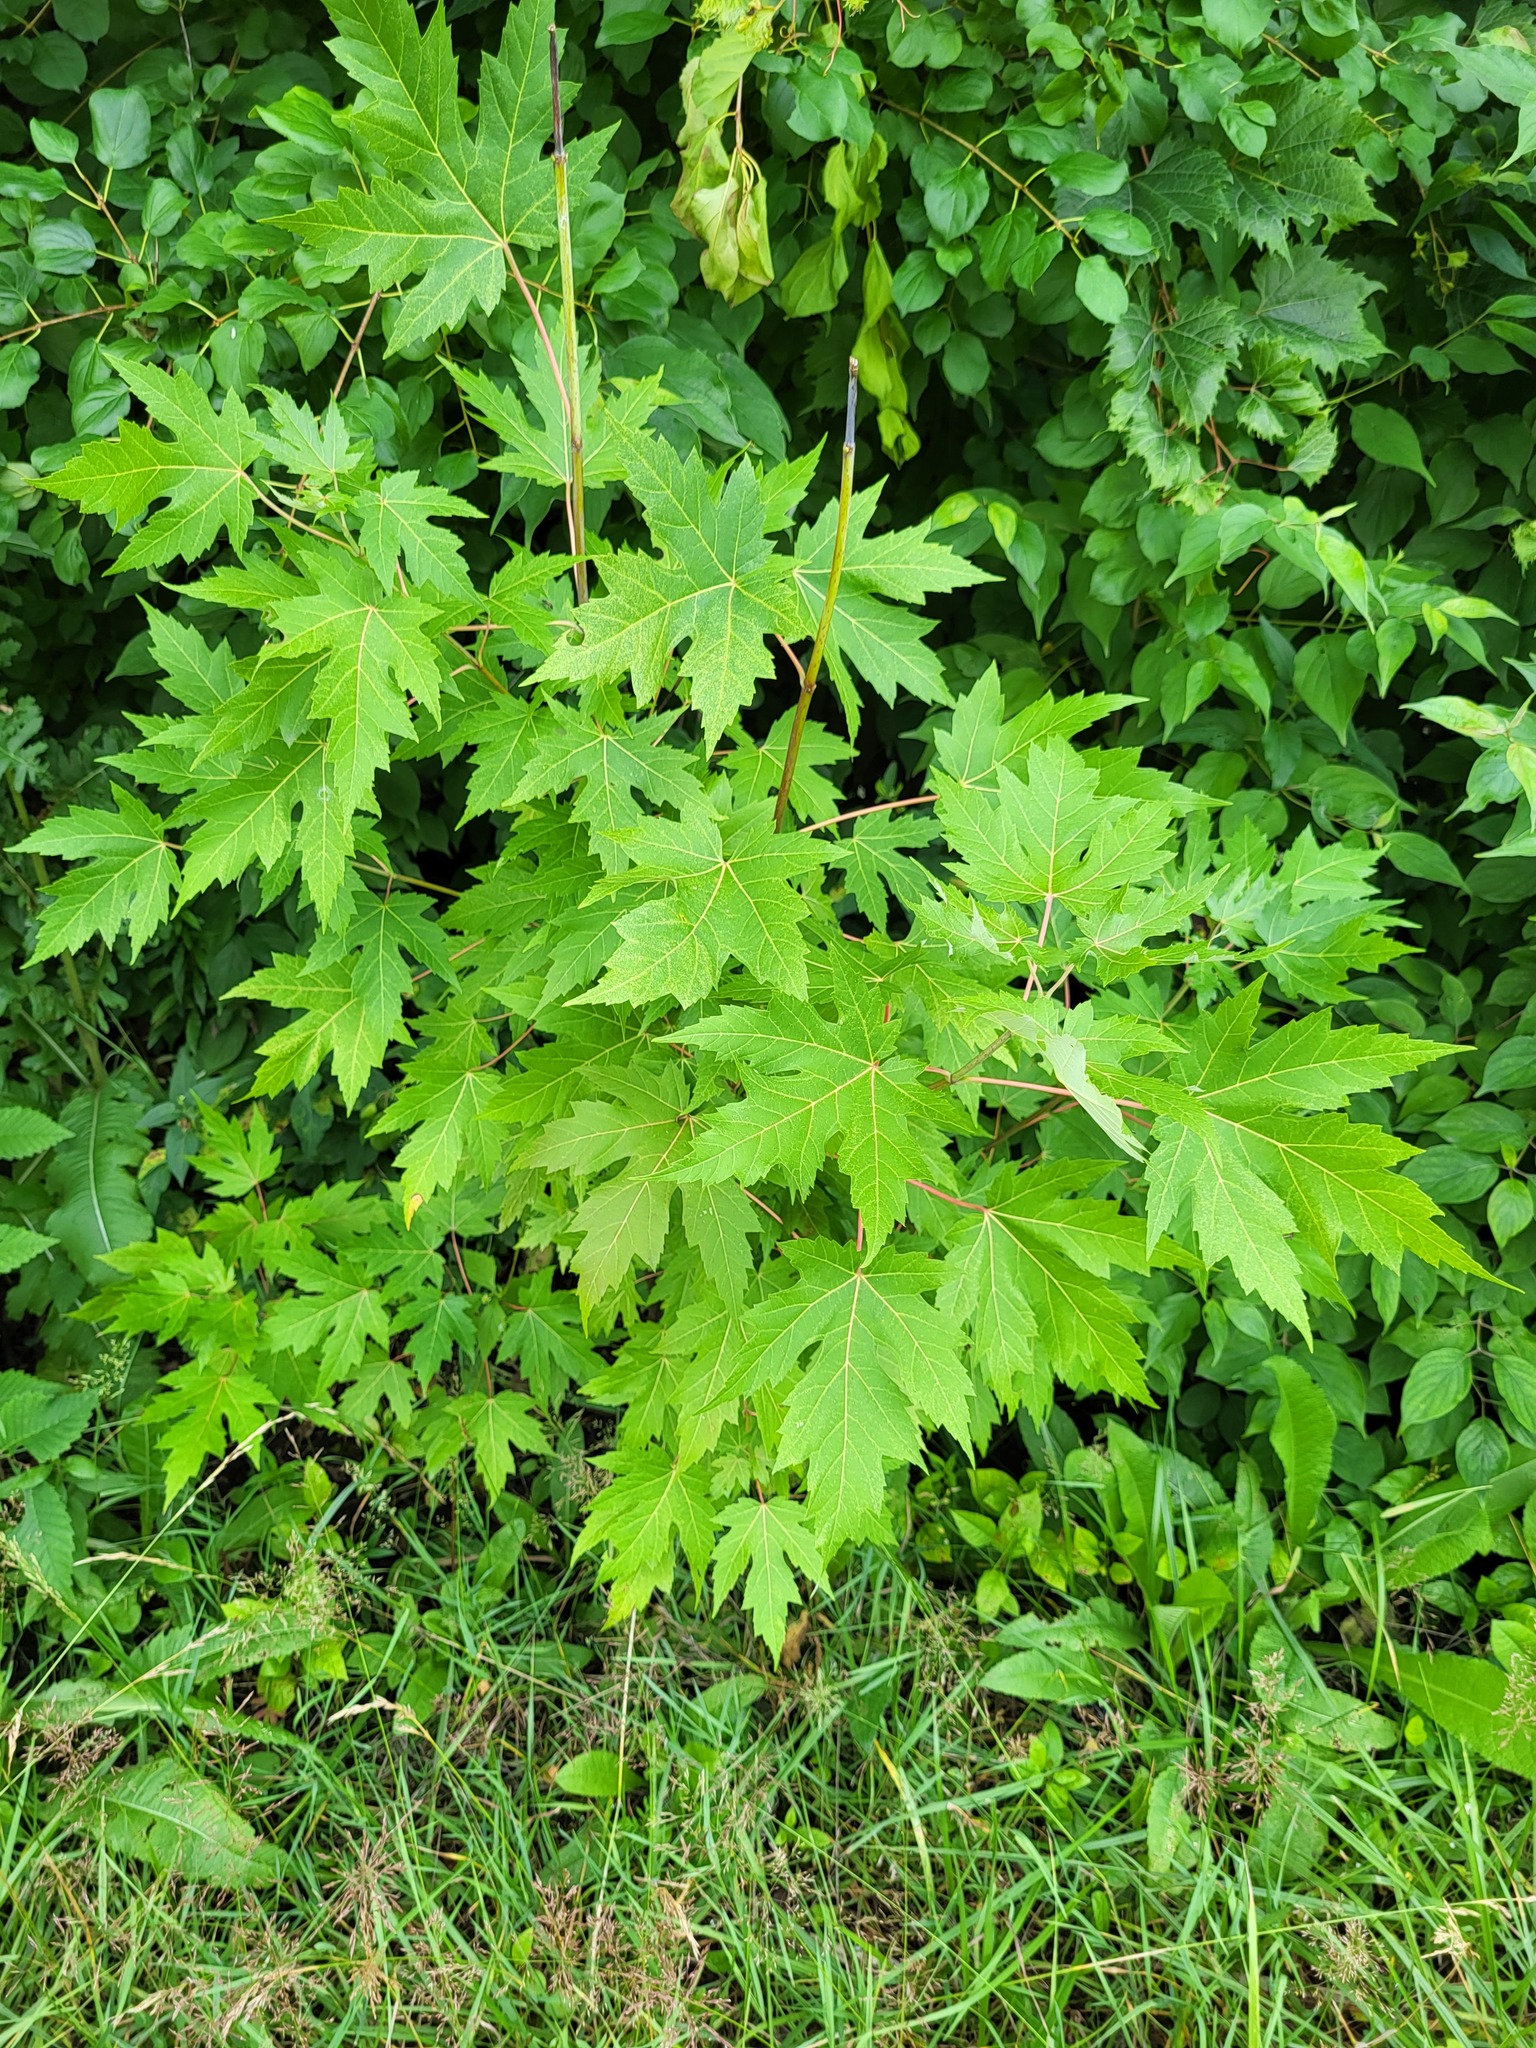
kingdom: Plantae
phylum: Tracheophyta
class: Magnoliopsida
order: Sapindales
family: Sapindaceae
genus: Acer
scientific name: Acer saccharinum
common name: Silver maple
